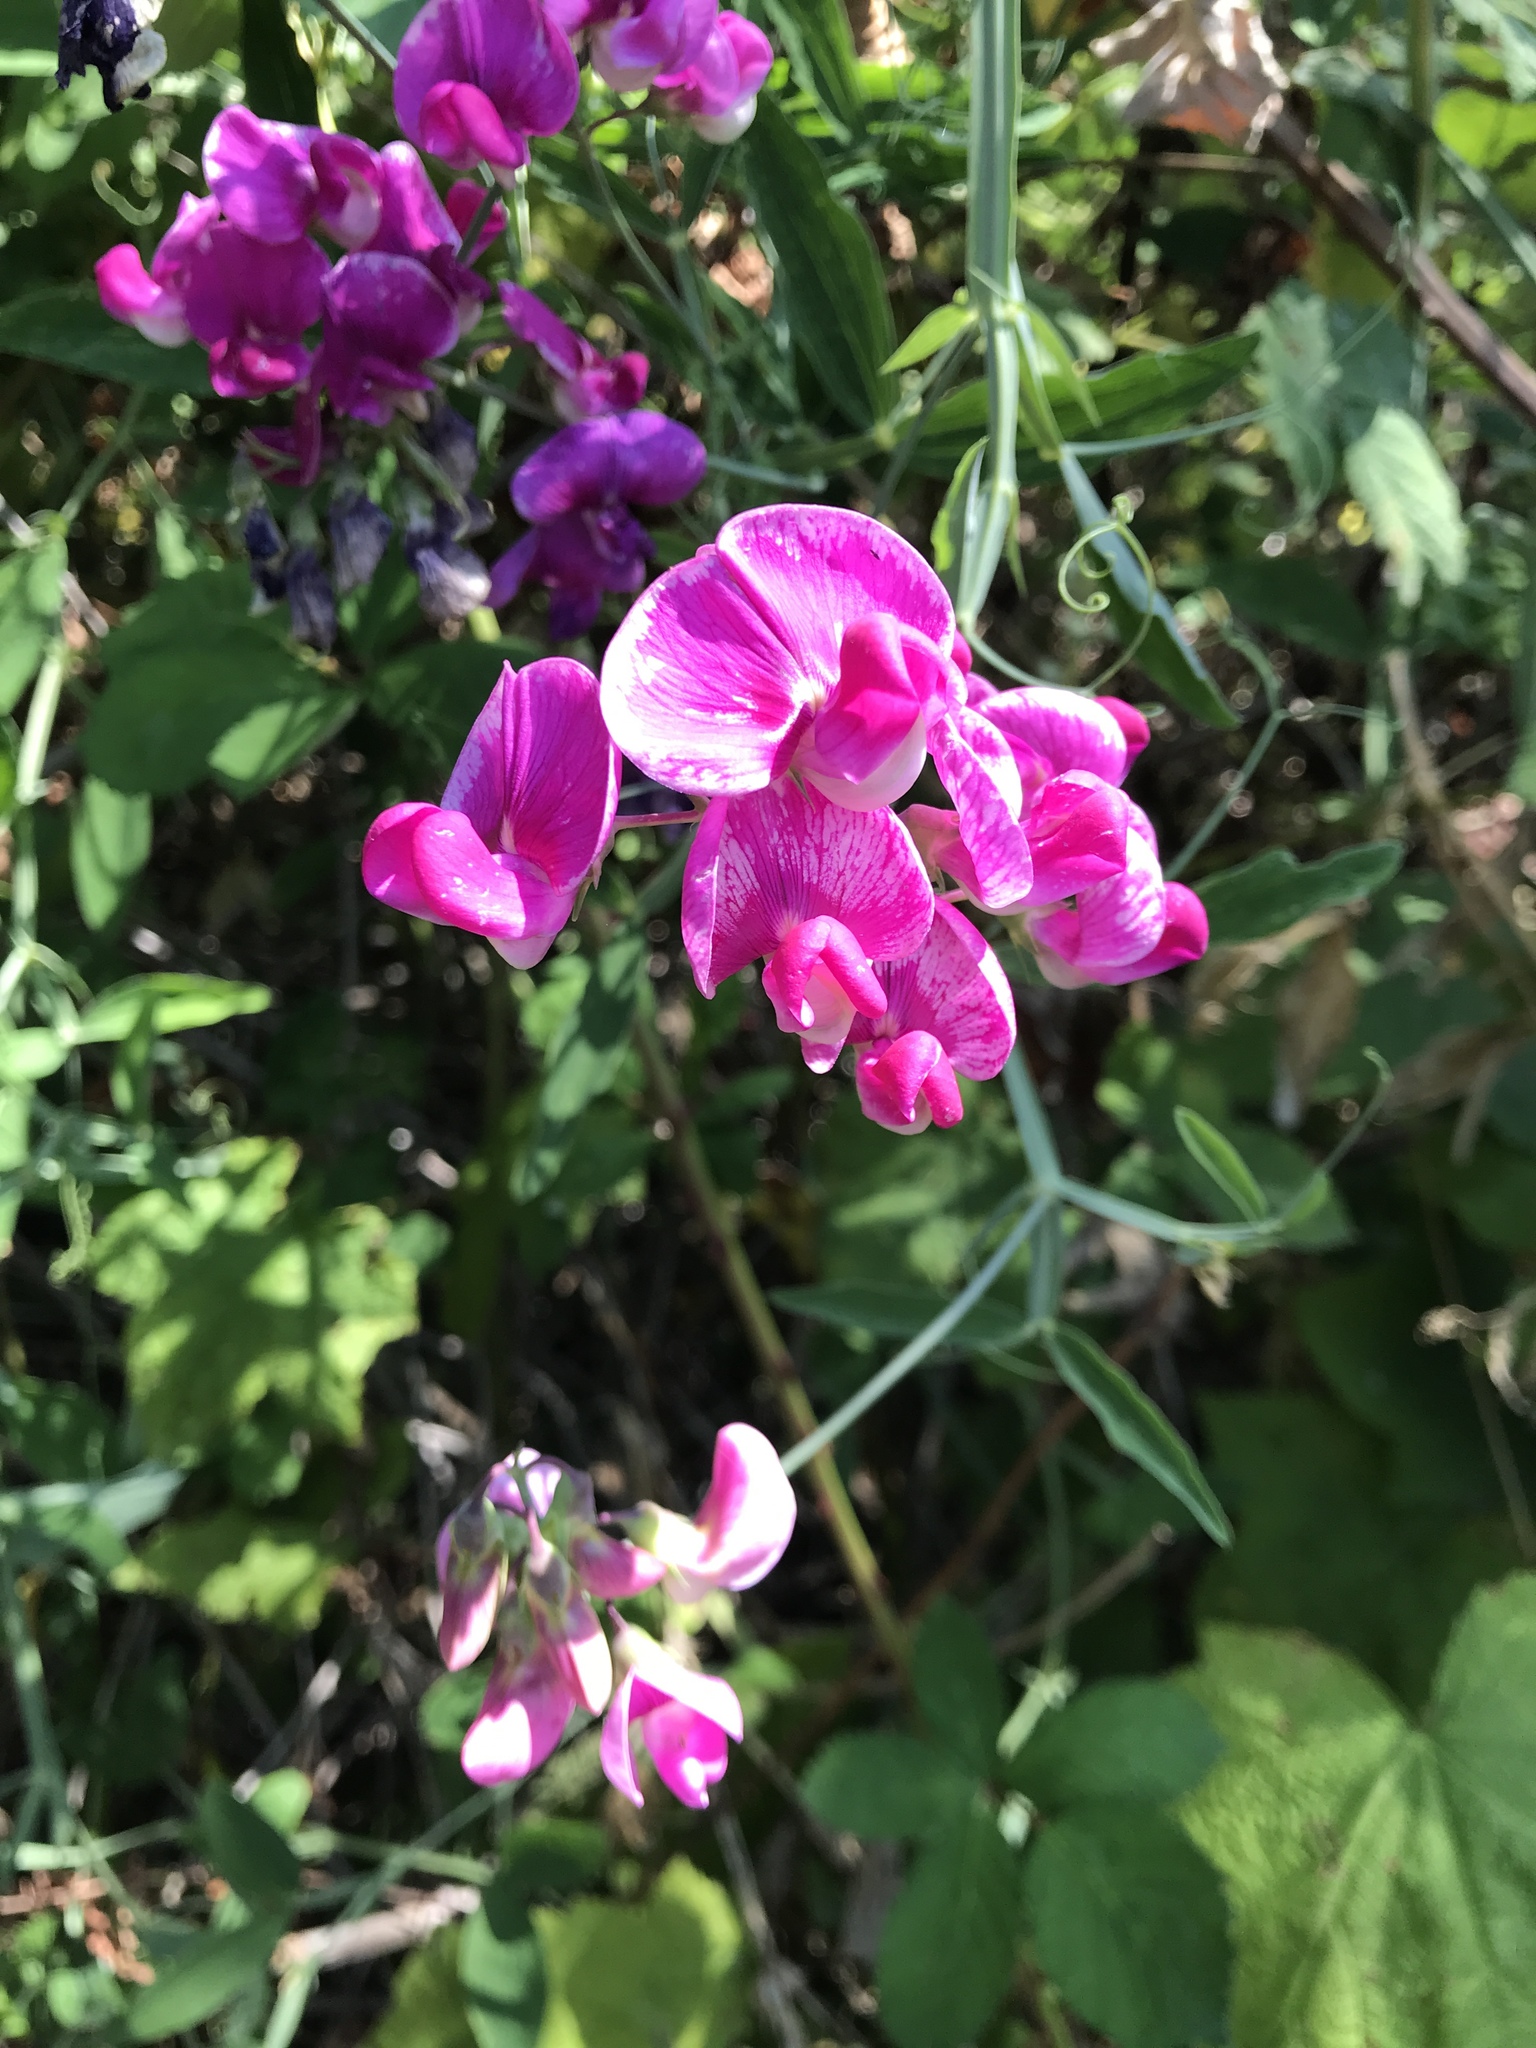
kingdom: Plantae
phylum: Tracheophyta
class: Magnoliopsida
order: Fabales
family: Fabaceae
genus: Lathyrus
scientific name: Lathyrus latifolius
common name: Perennial pea
